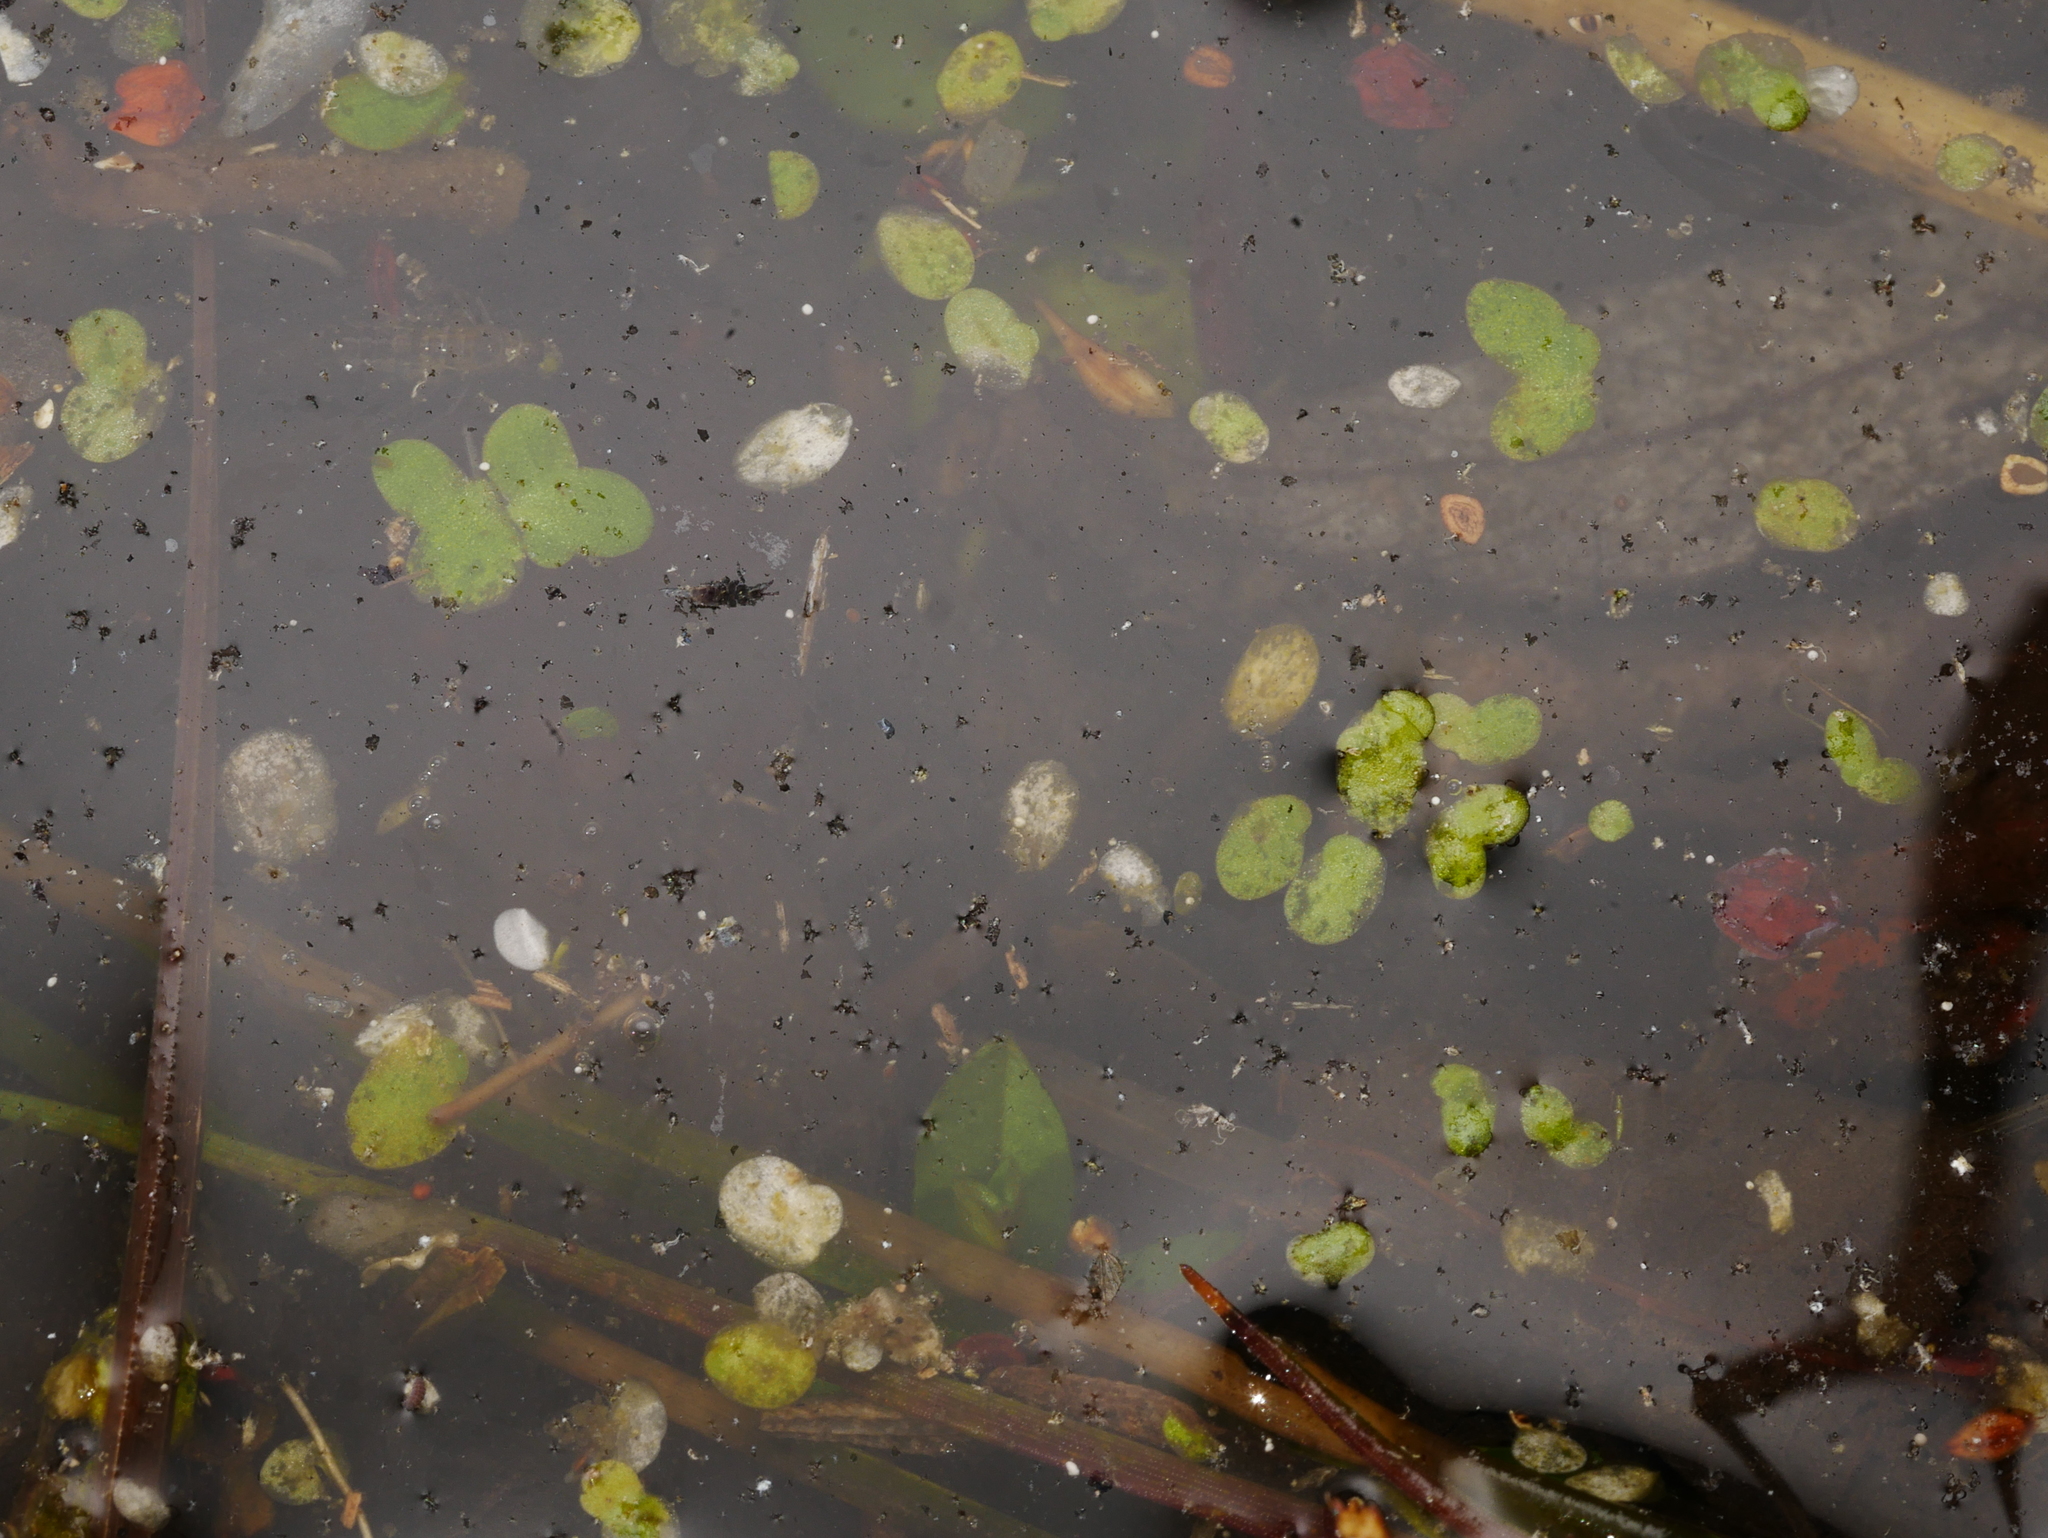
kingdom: Plantae
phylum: Tracheophyta
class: Liliopsida
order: Alismatales
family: Araceae
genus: Lemna
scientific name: Lemna minor
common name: Common duckweed
